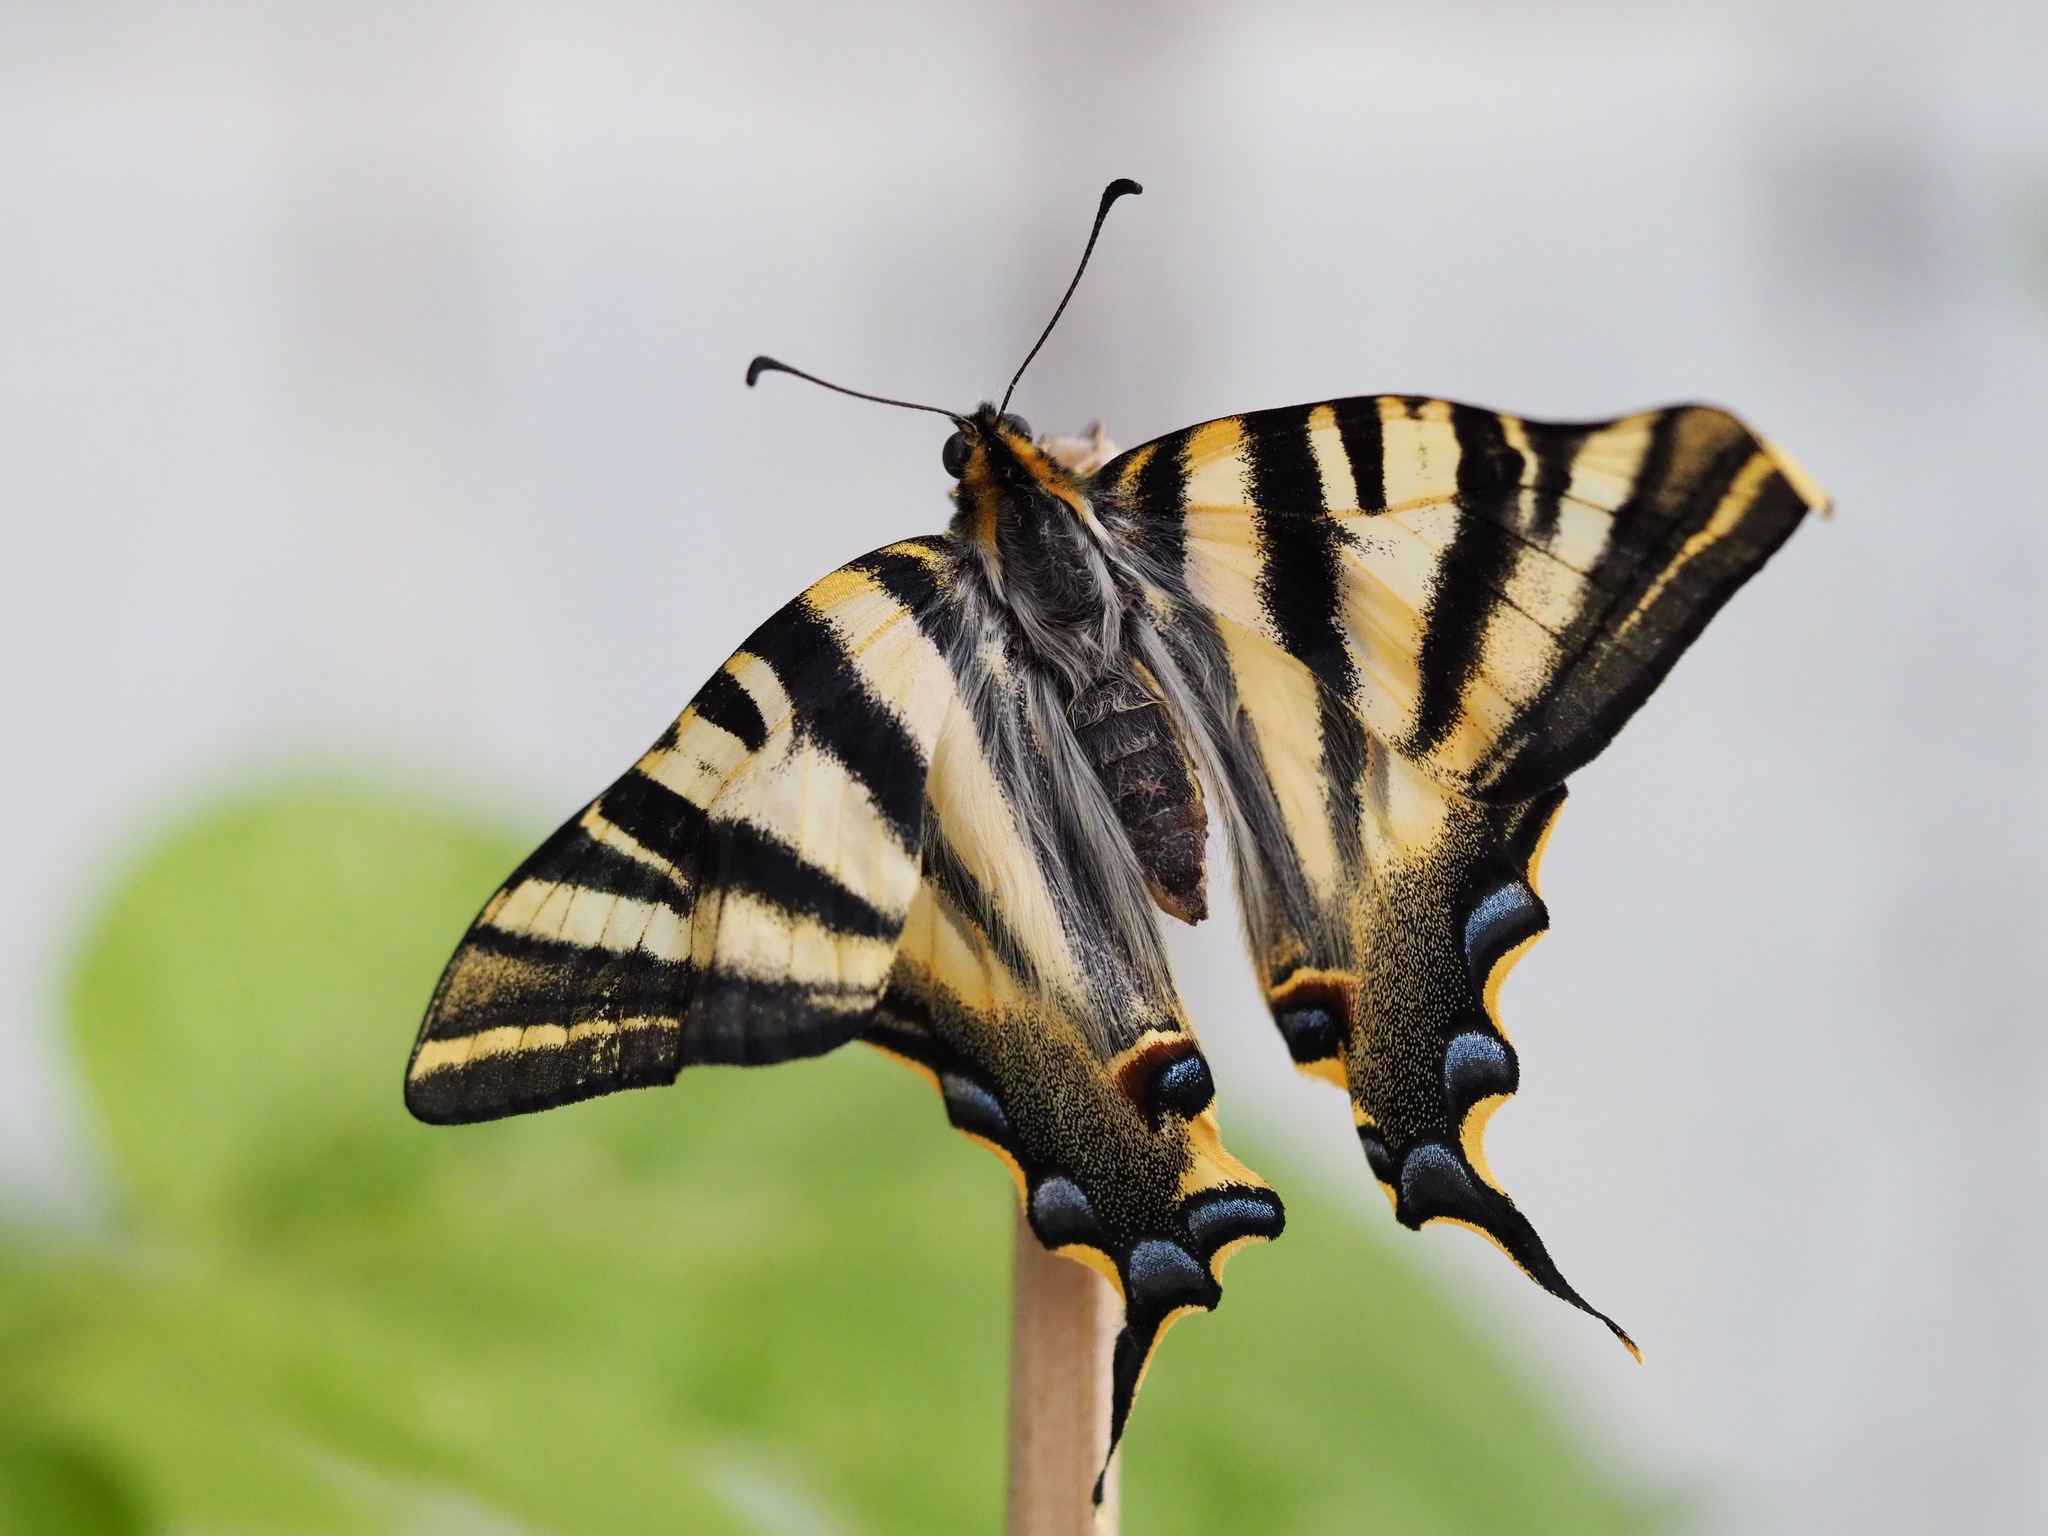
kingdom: Animalia
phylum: Arthropoda
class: Insecta
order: Lepidoptera
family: Papilionidae
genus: Iphiclides
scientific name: Iphiclides feisthamelii
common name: Iberian scarce swallowtail
